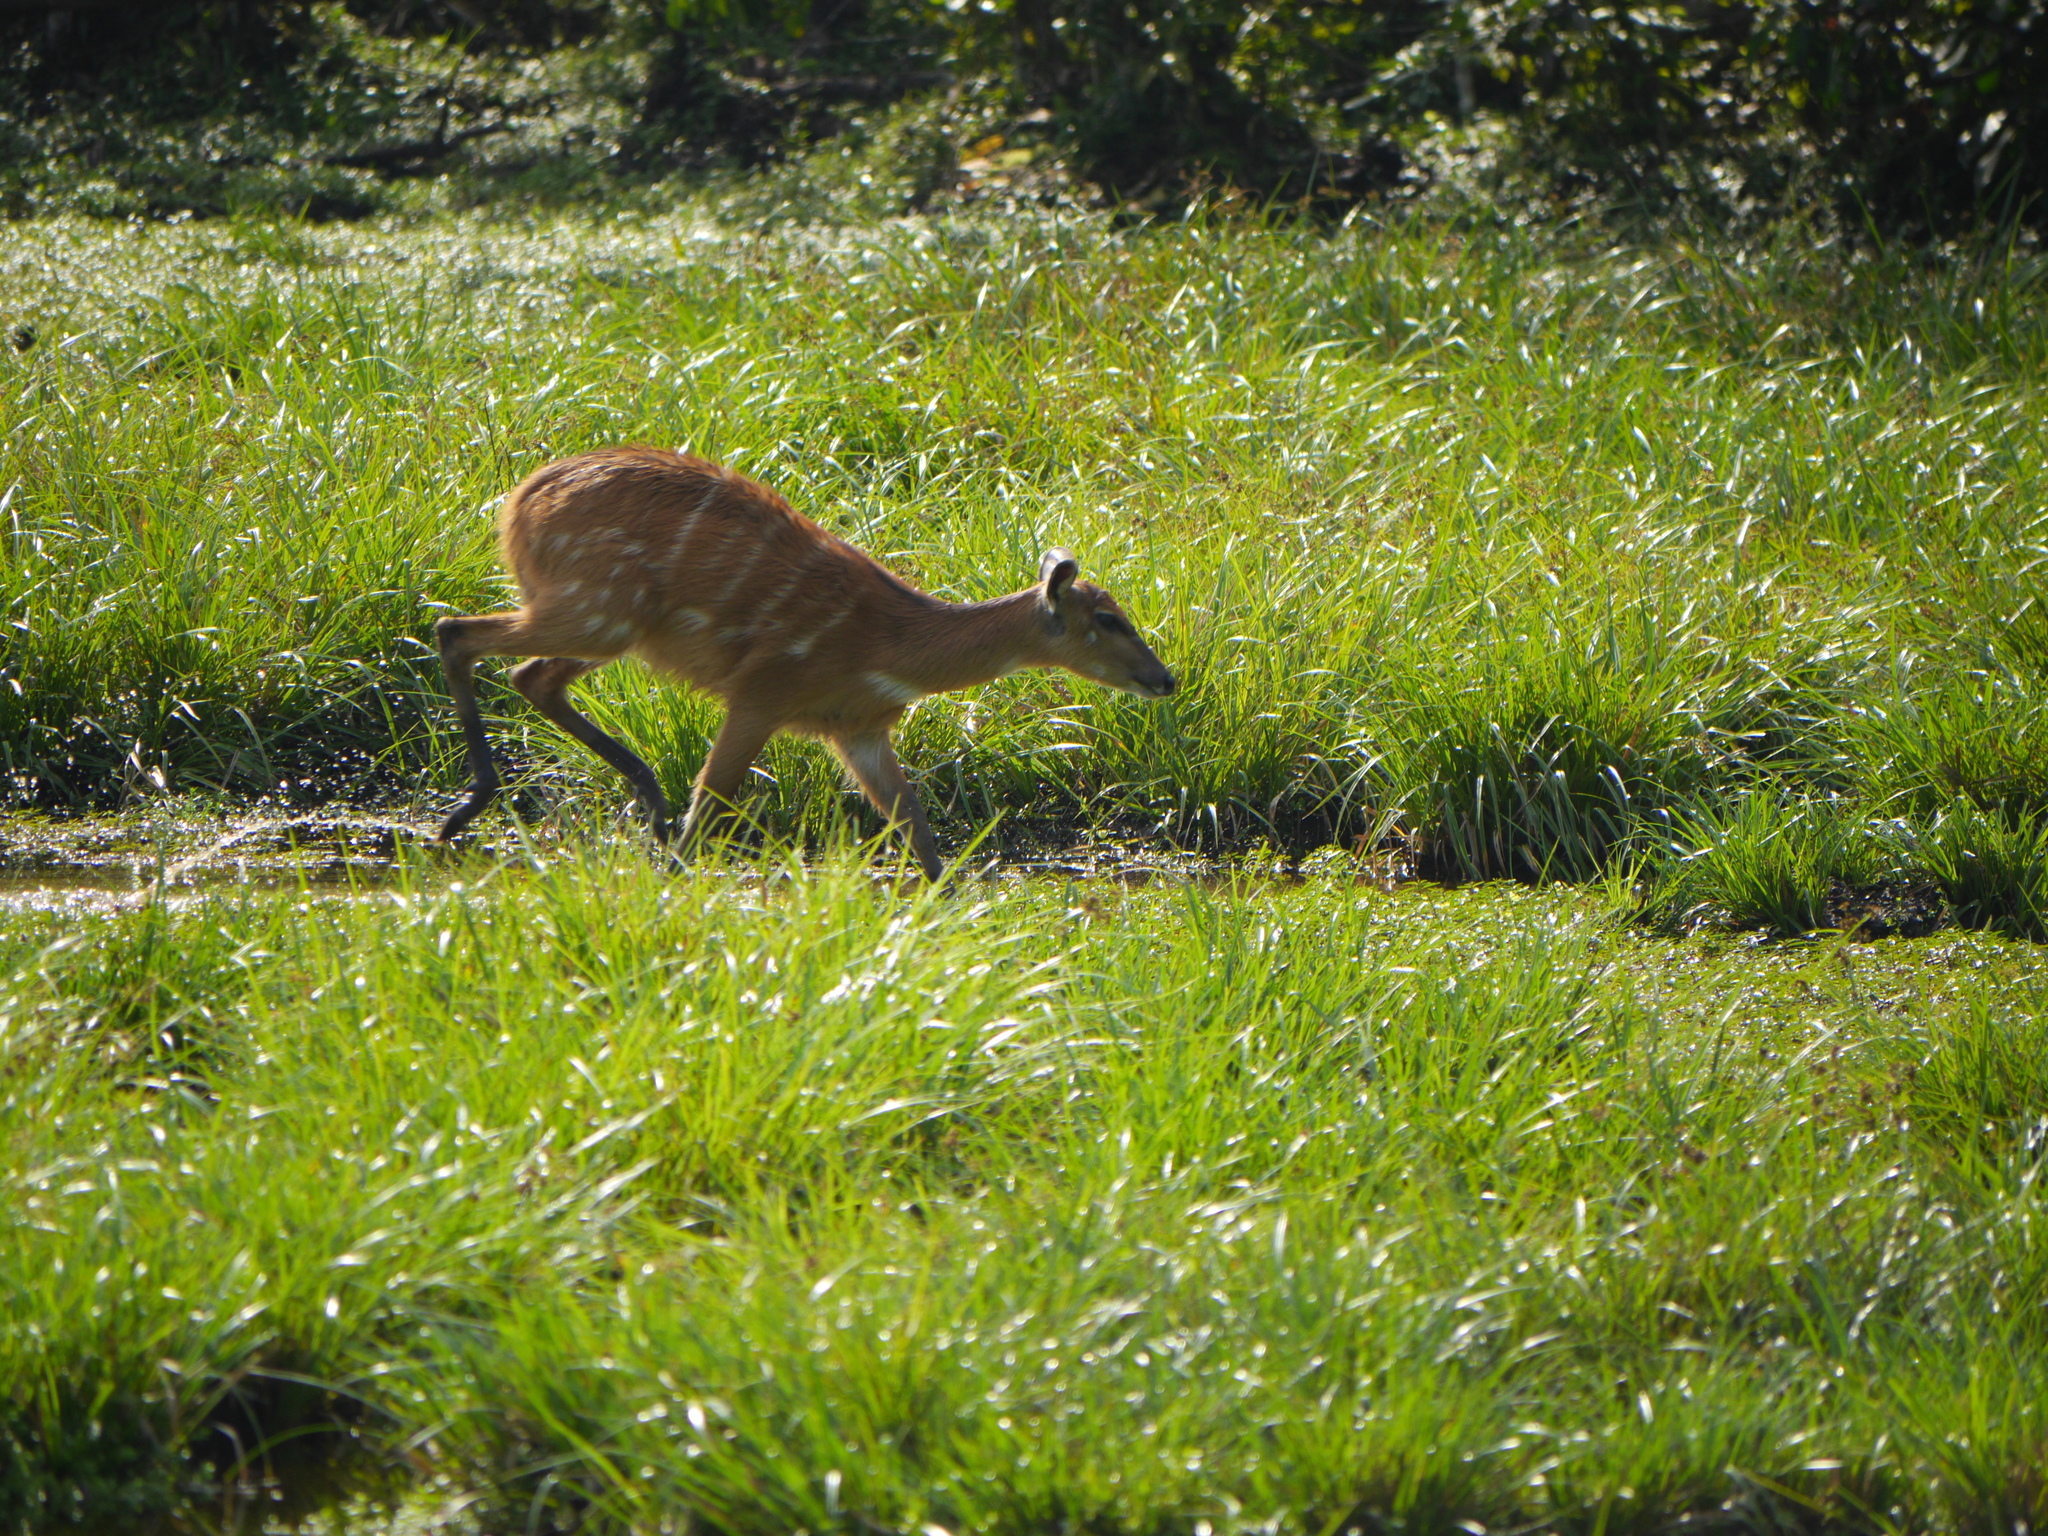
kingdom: Animalia
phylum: Chordata
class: Mammalia
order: Artiodactyla
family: Bovidae
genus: Tragelaphus
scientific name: Tragelaphus spekii
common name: Sitatunga
